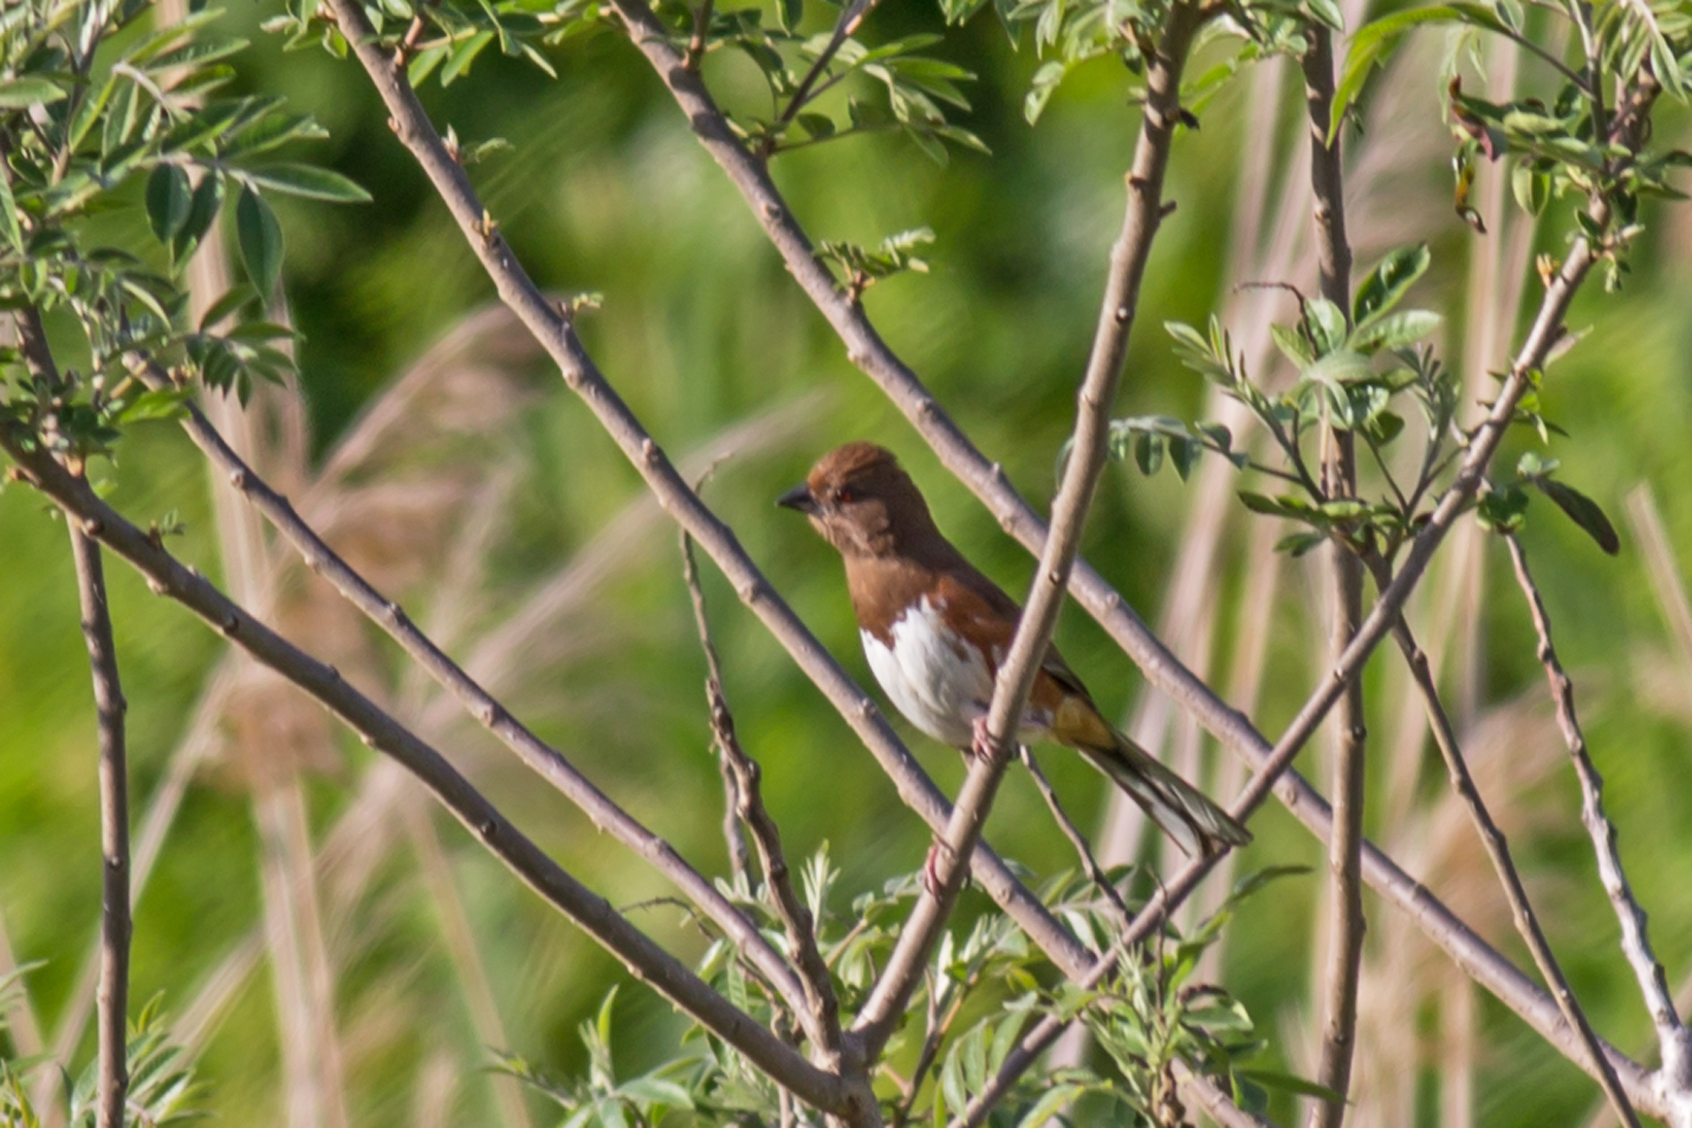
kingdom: Animalia
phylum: Chordata
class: Aves
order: Passeriformes
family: Passerellidae
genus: Pipilo
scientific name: Pipilo erythrophthalmus
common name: Eastern towhee
